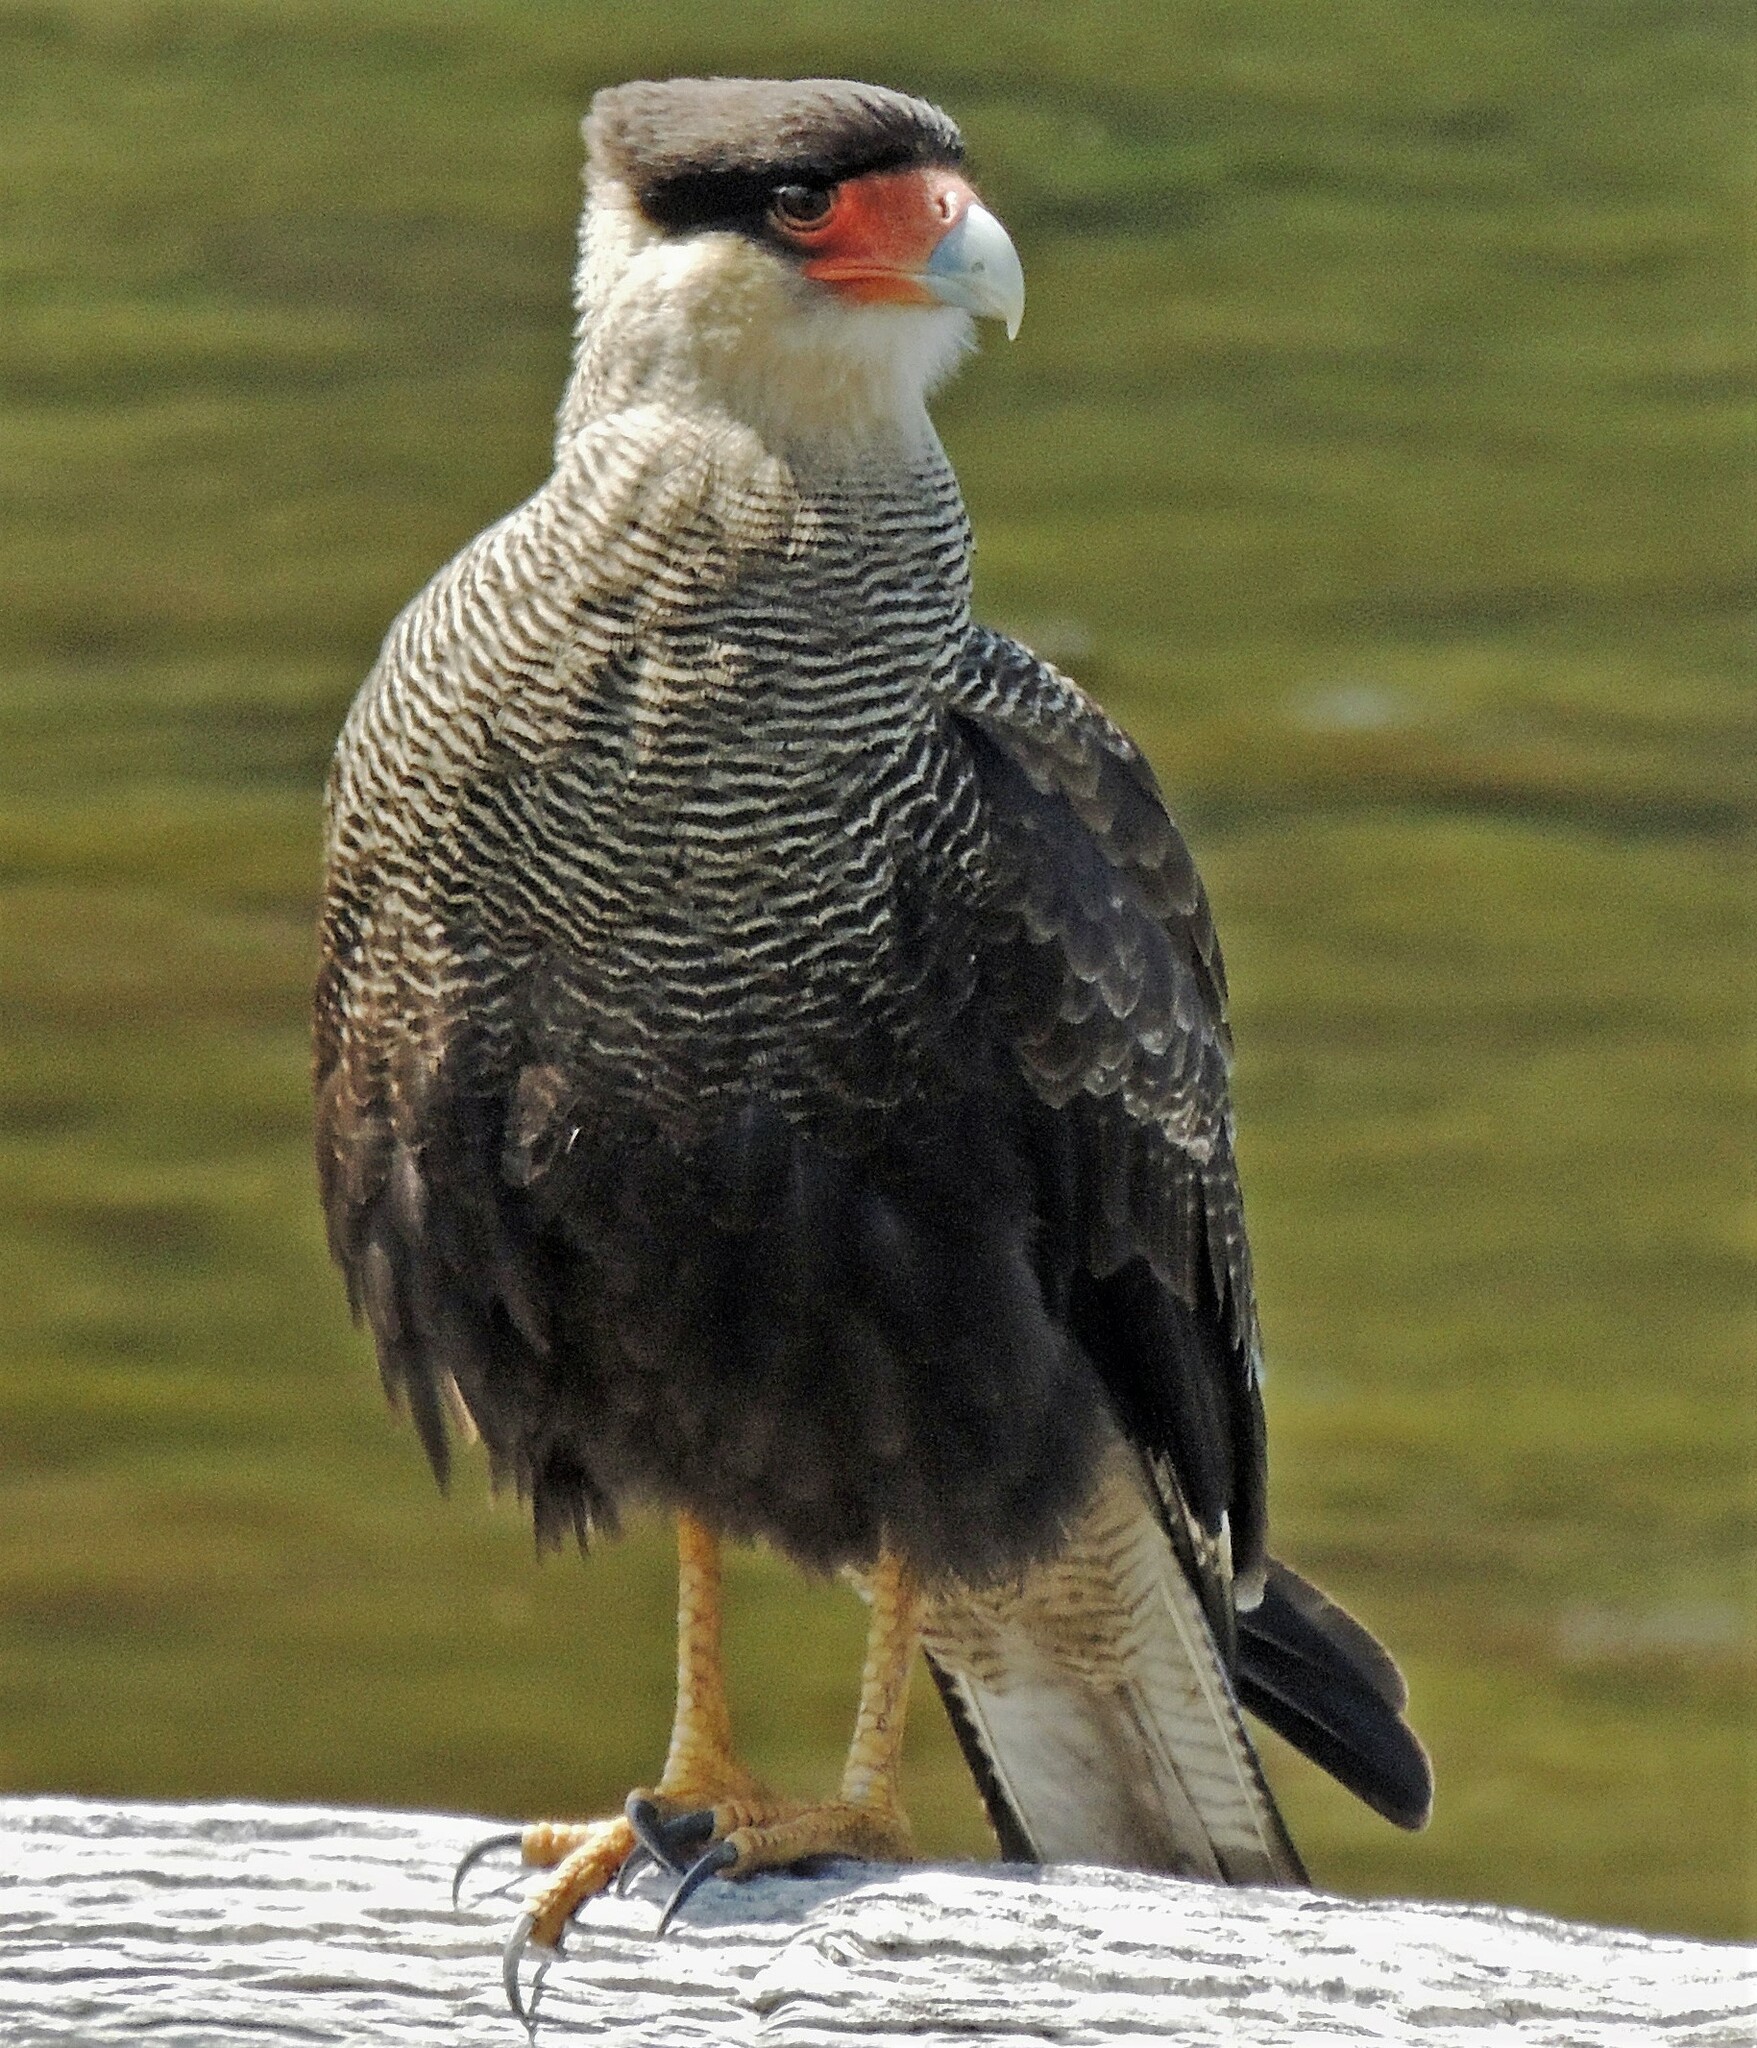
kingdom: Animalia
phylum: Chordata
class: Aves
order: Falconiformes
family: Falconidae
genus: Caracara
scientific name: Caracara plancus
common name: Southern caracara
